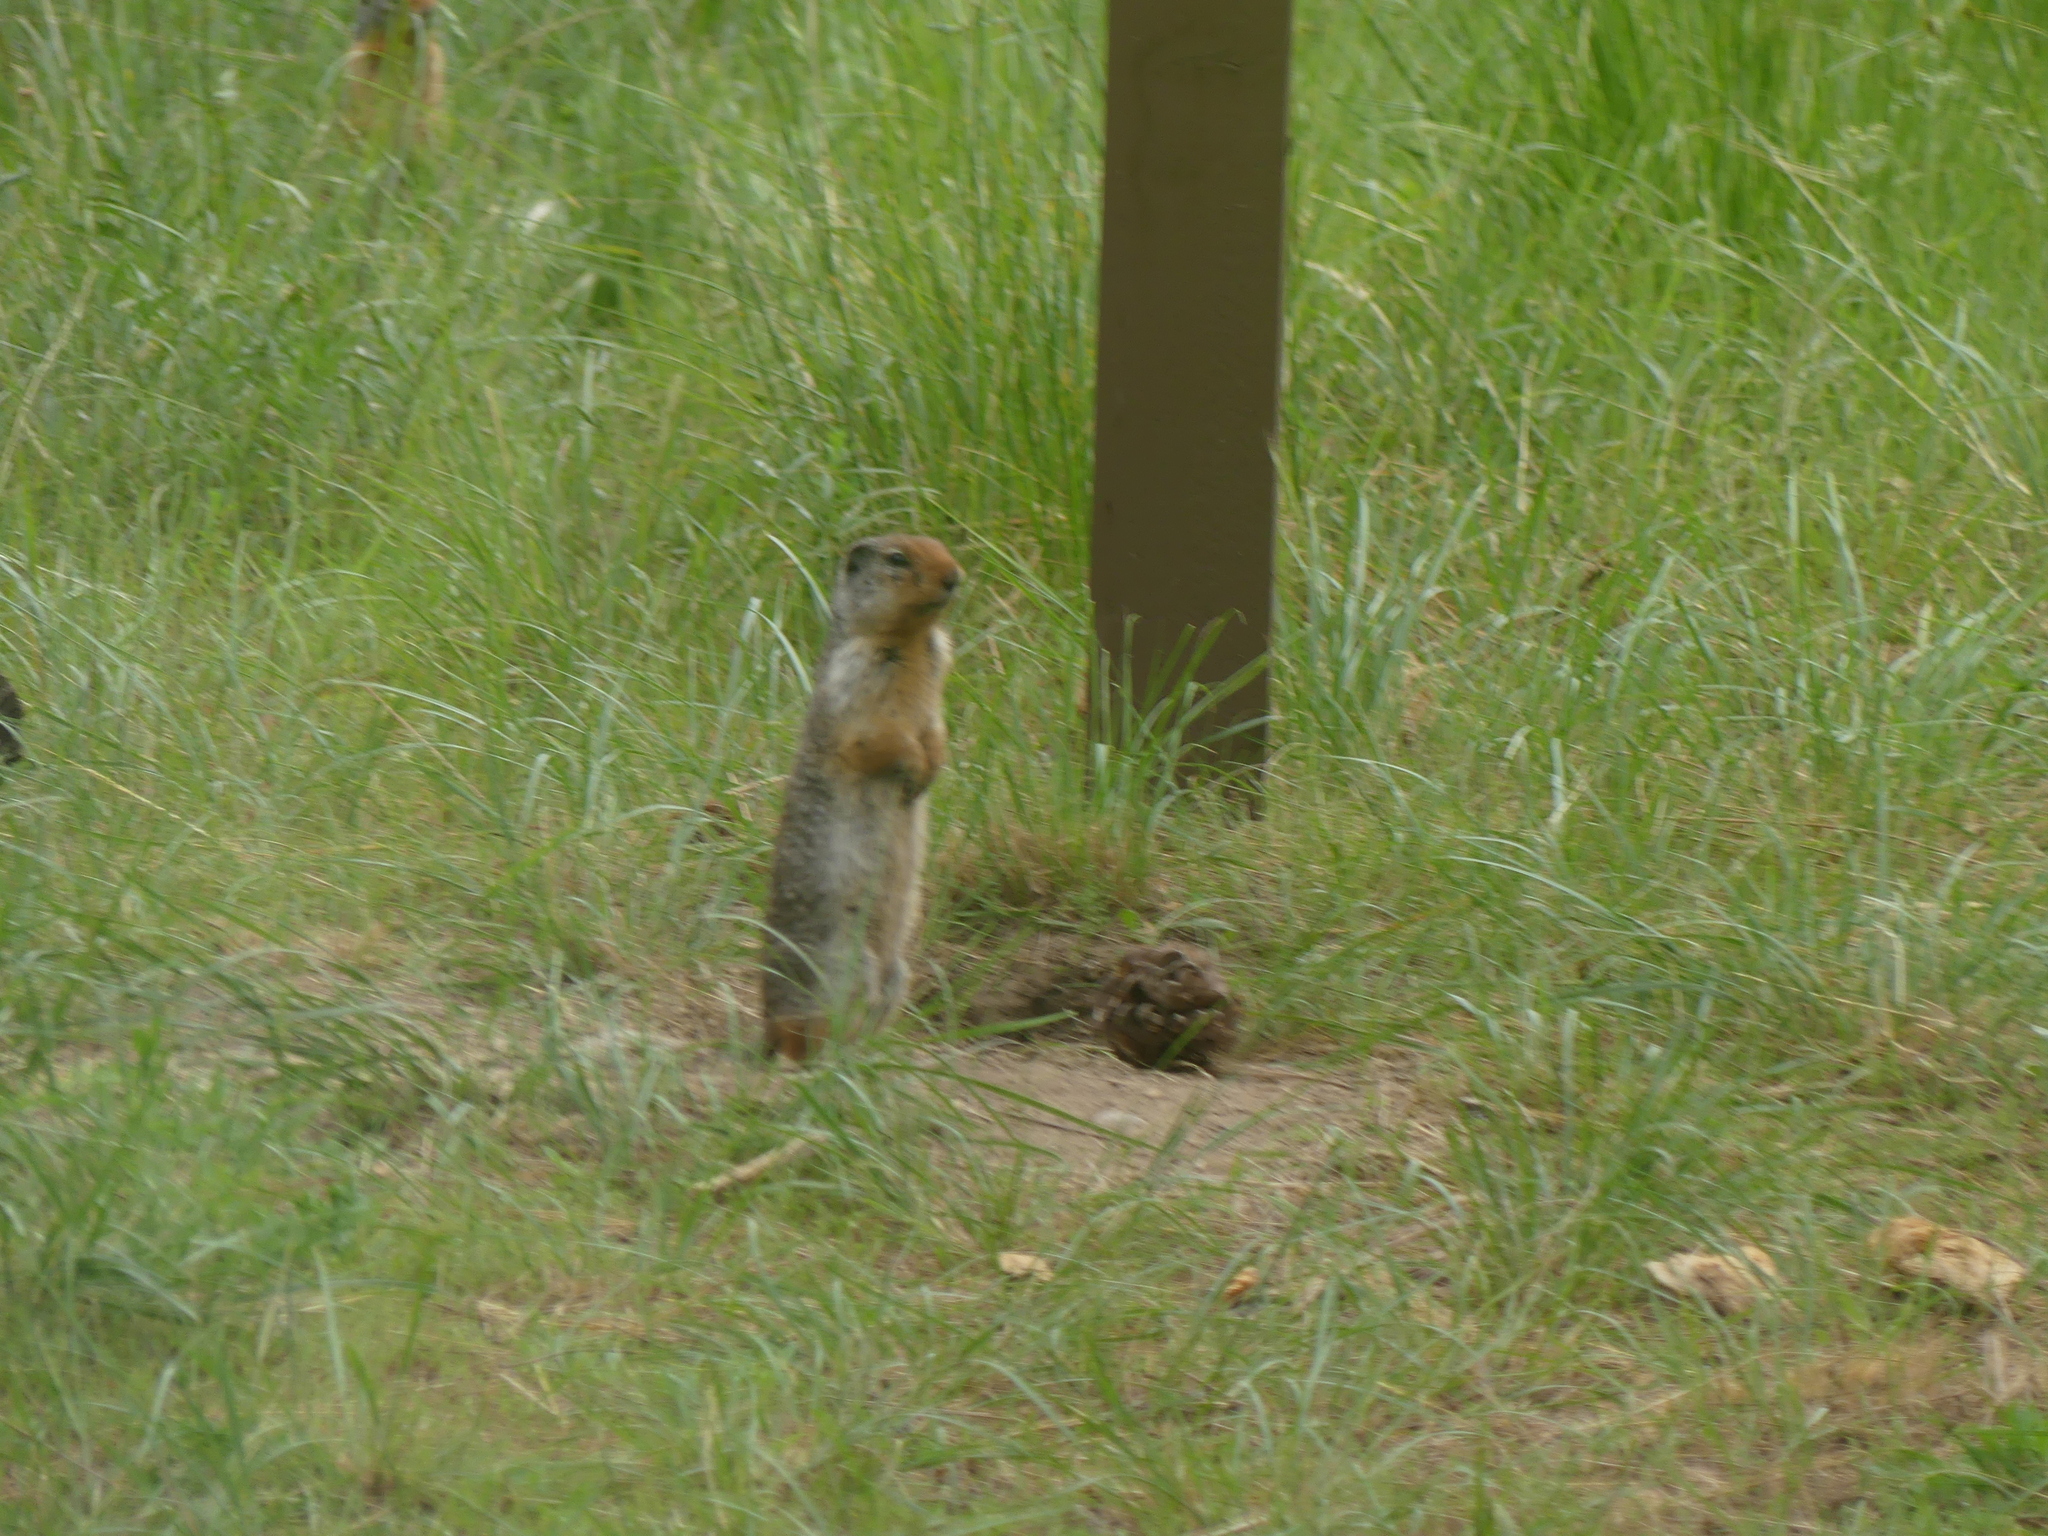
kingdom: Animalia
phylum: Chordata
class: Mammalia
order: Rodentia
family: Sciuridae
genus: Urocitellus
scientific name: Urocitellus columbianus
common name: Columbian ground squirrel
